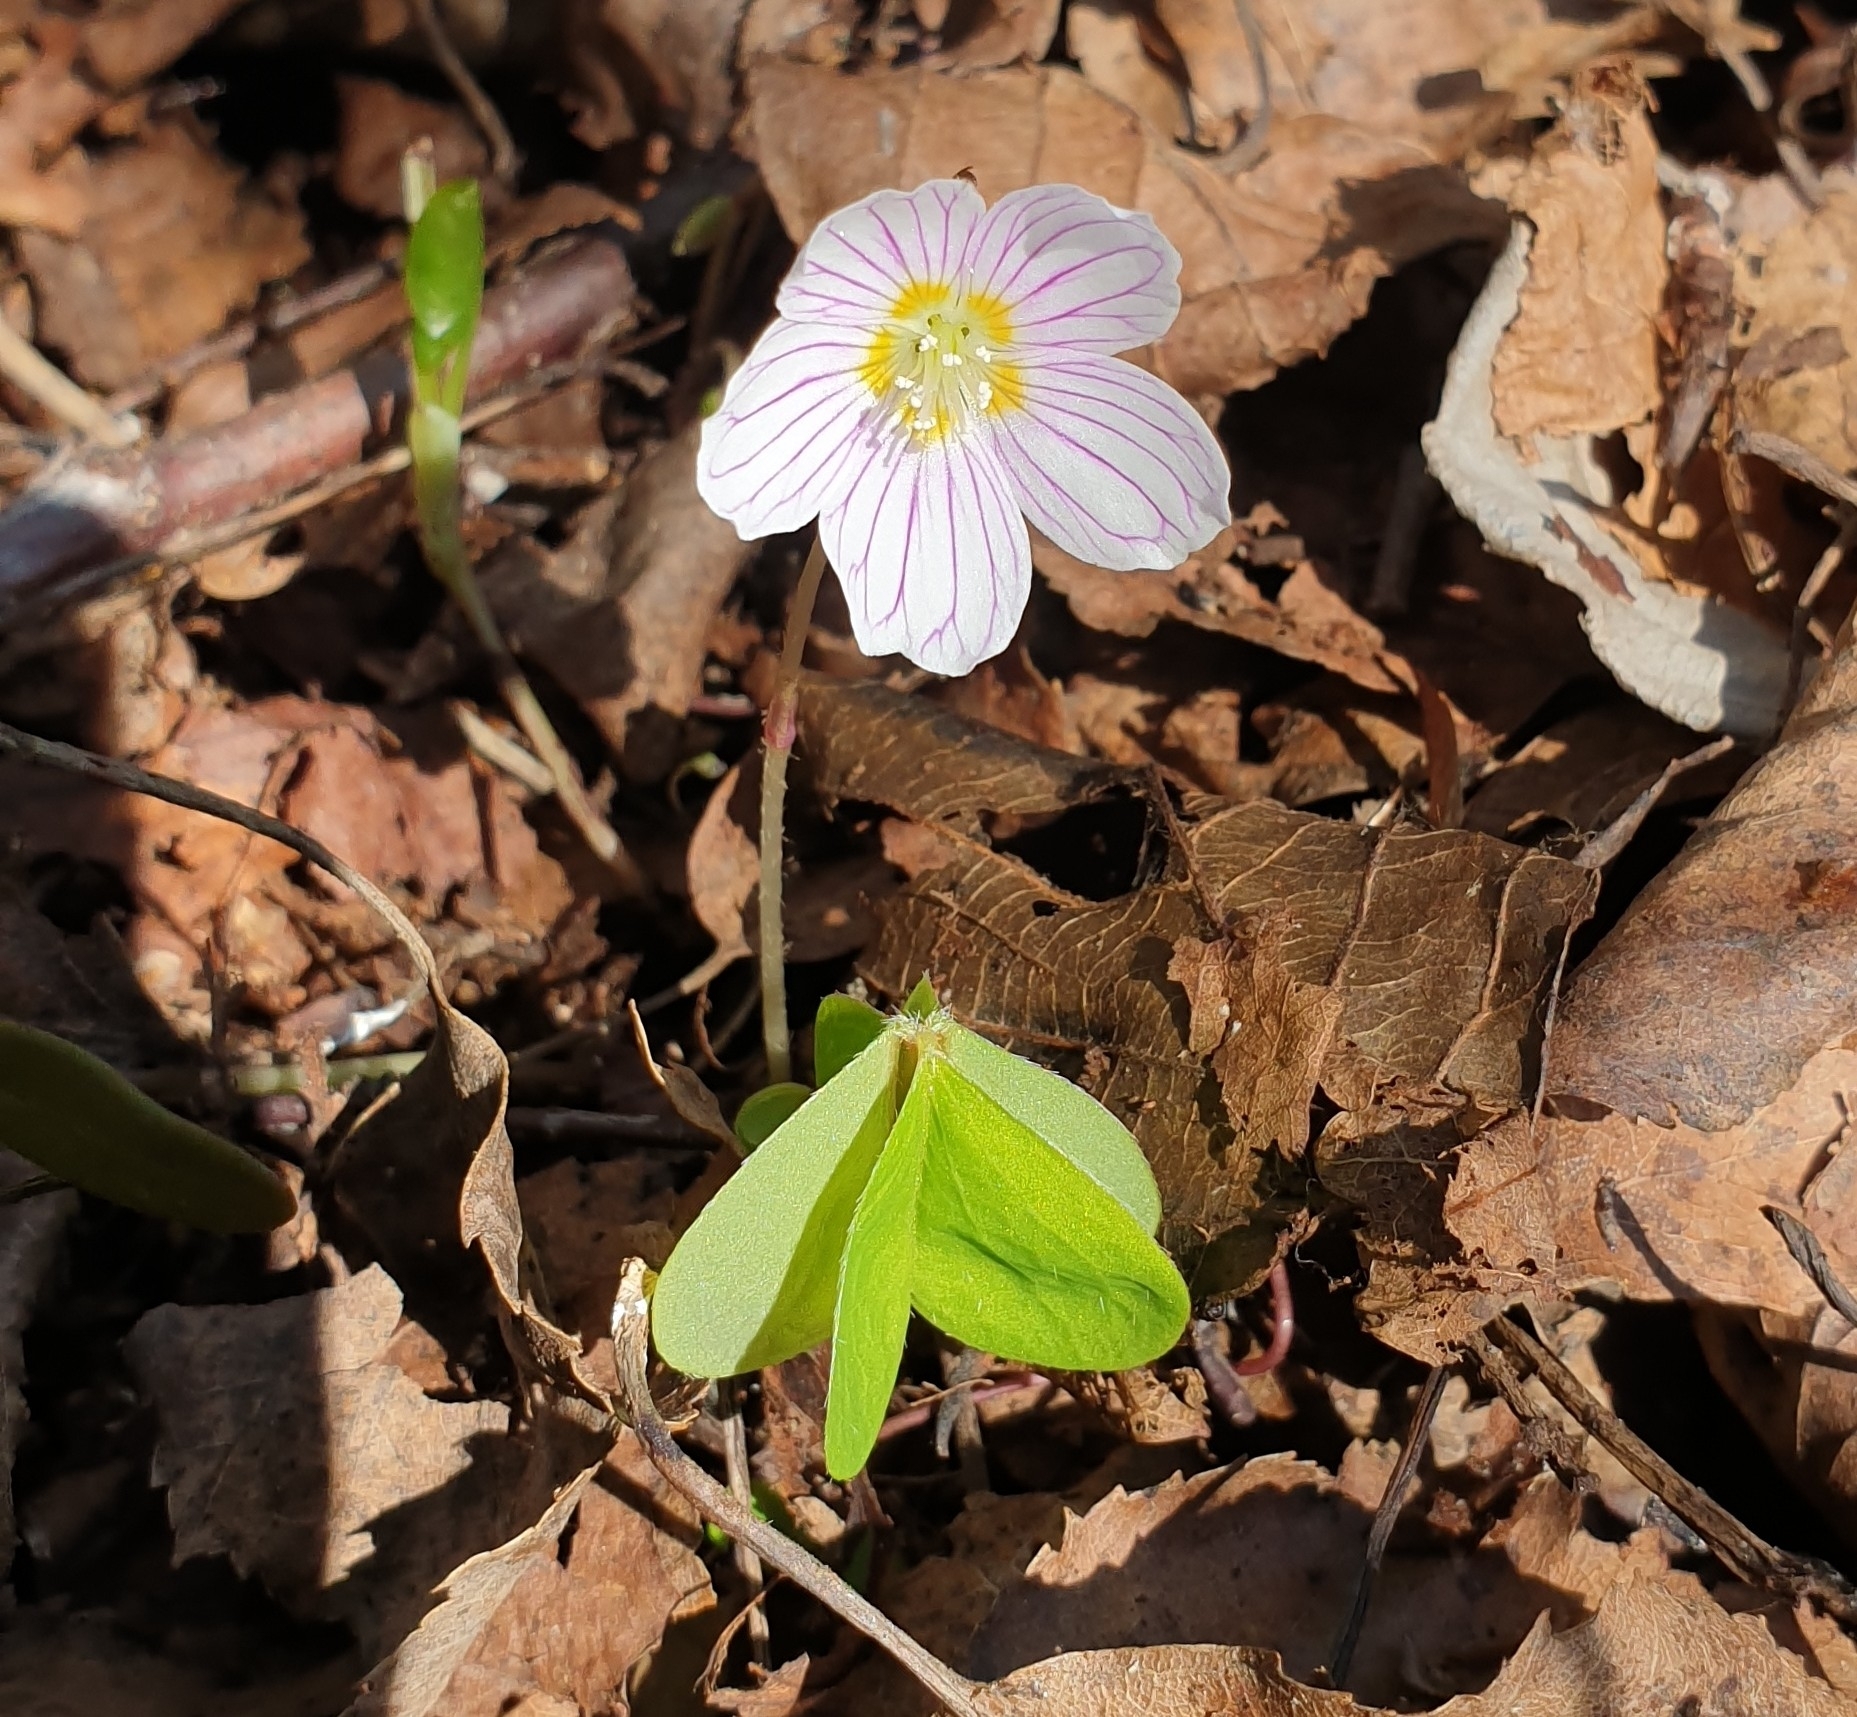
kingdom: Plantae
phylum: Tracheophyta
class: Magnoliopsida
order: Oxalidales
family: Oxalidaceae
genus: Oxalis
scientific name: Oxalis acetosella
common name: Wood-sorrel
